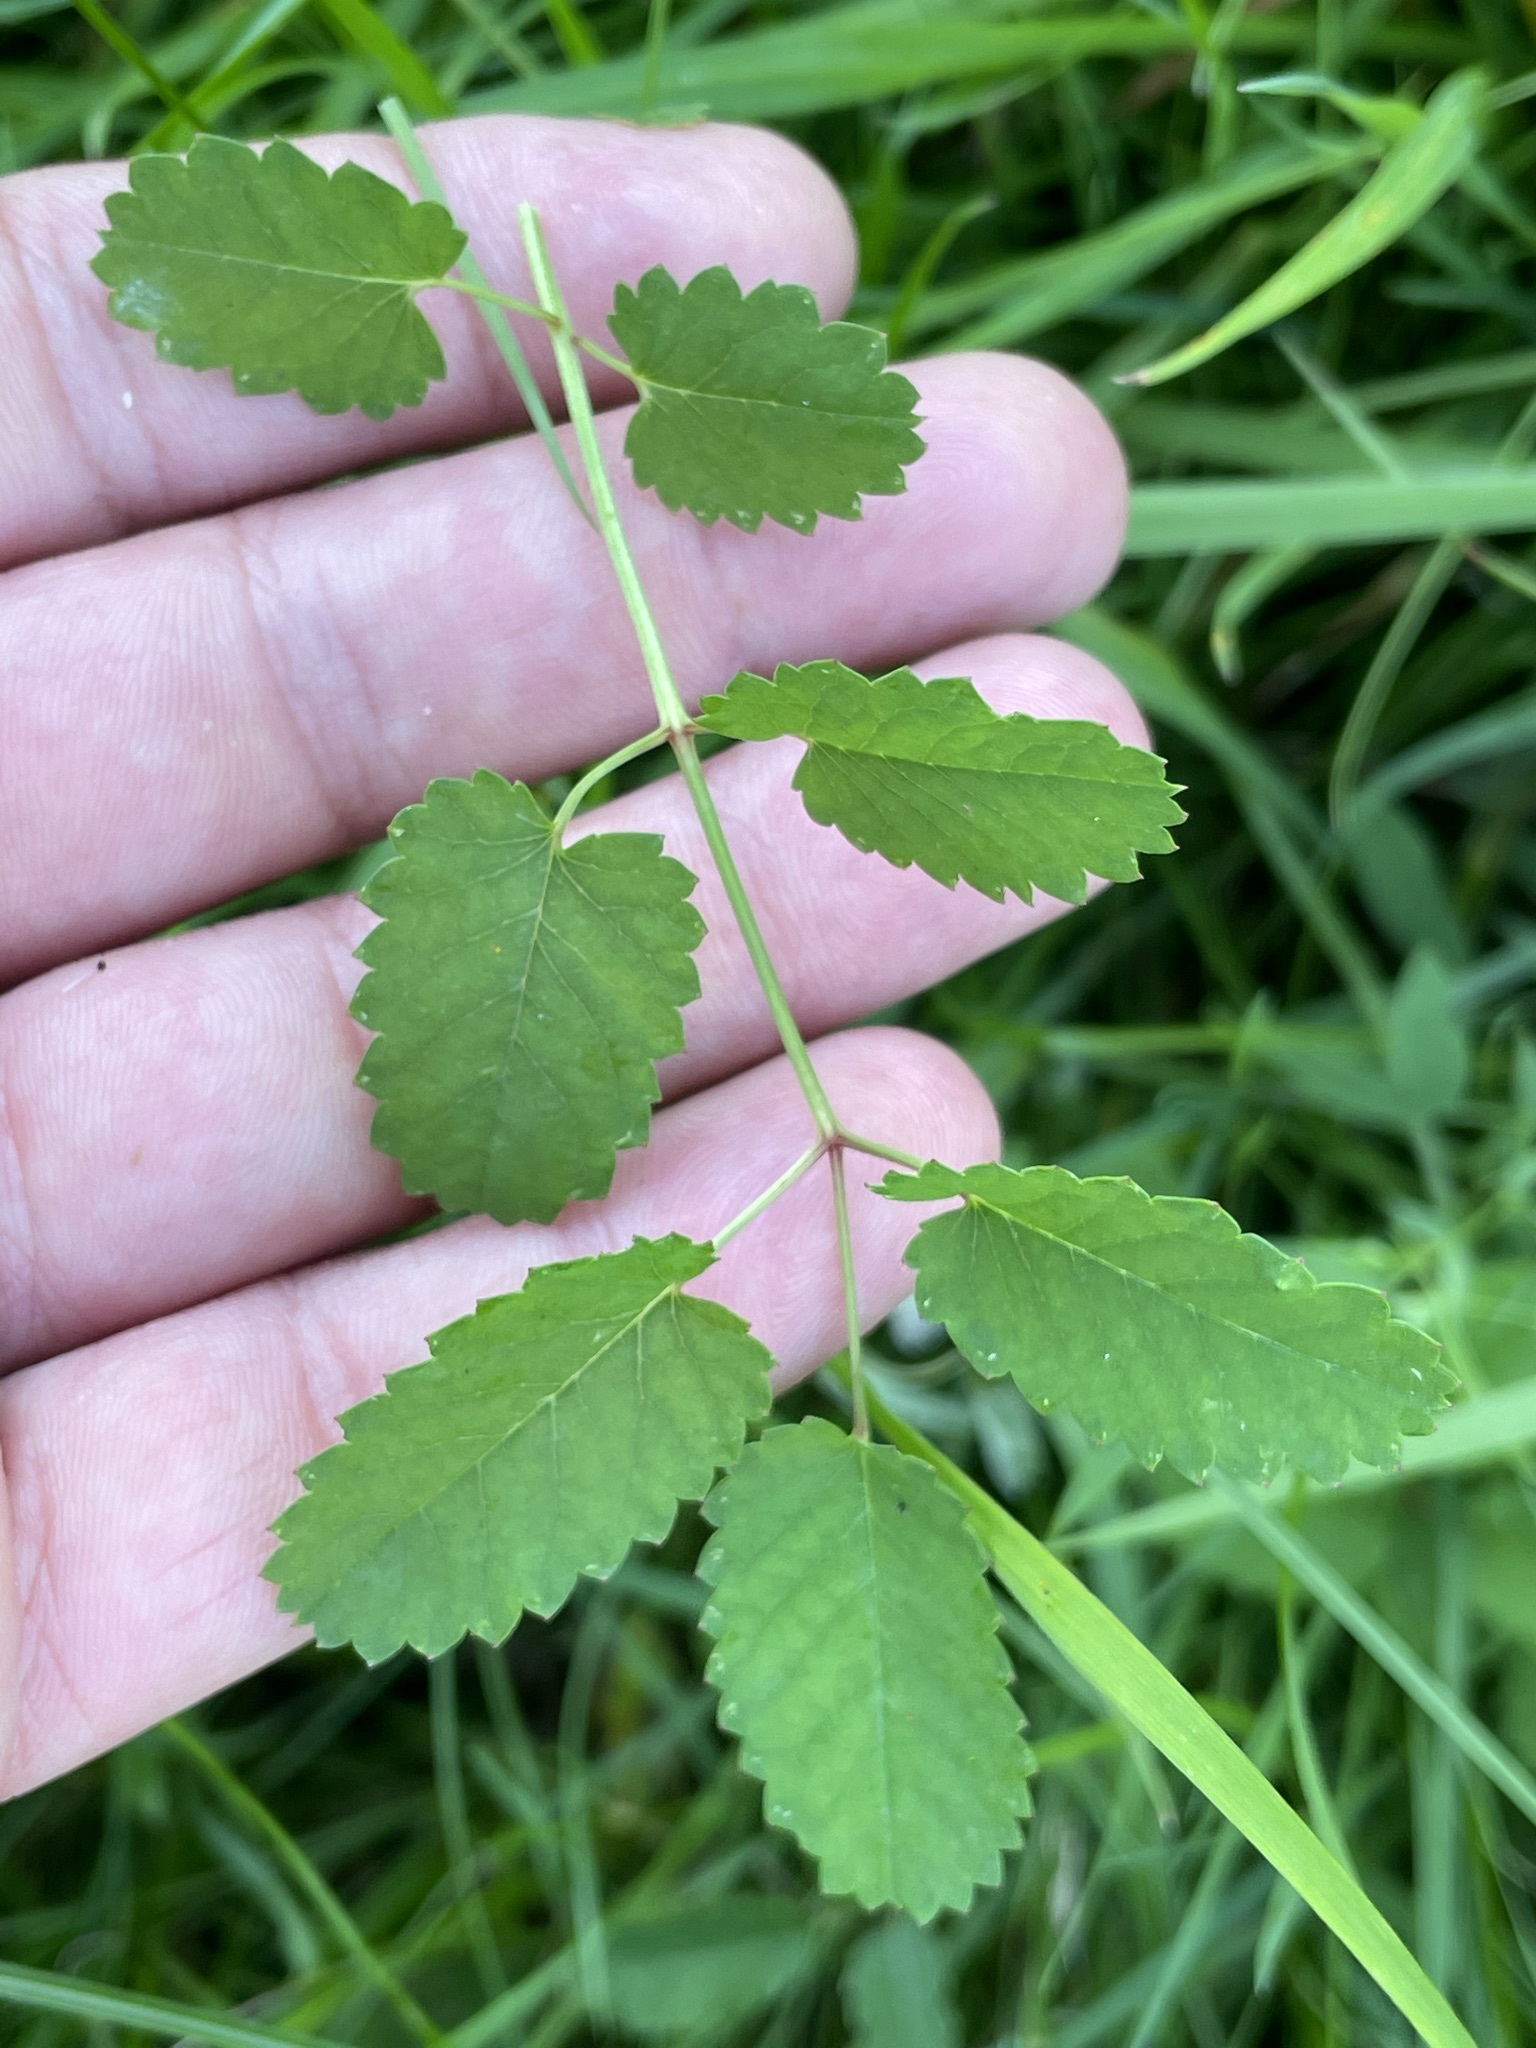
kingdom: Plantae
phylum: Tracheophyta
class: Magnoliopsida
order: Rosales
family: Rosaceae
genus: Sanguisorba
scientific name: Sanguisorba officinalis
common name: Great burnet
